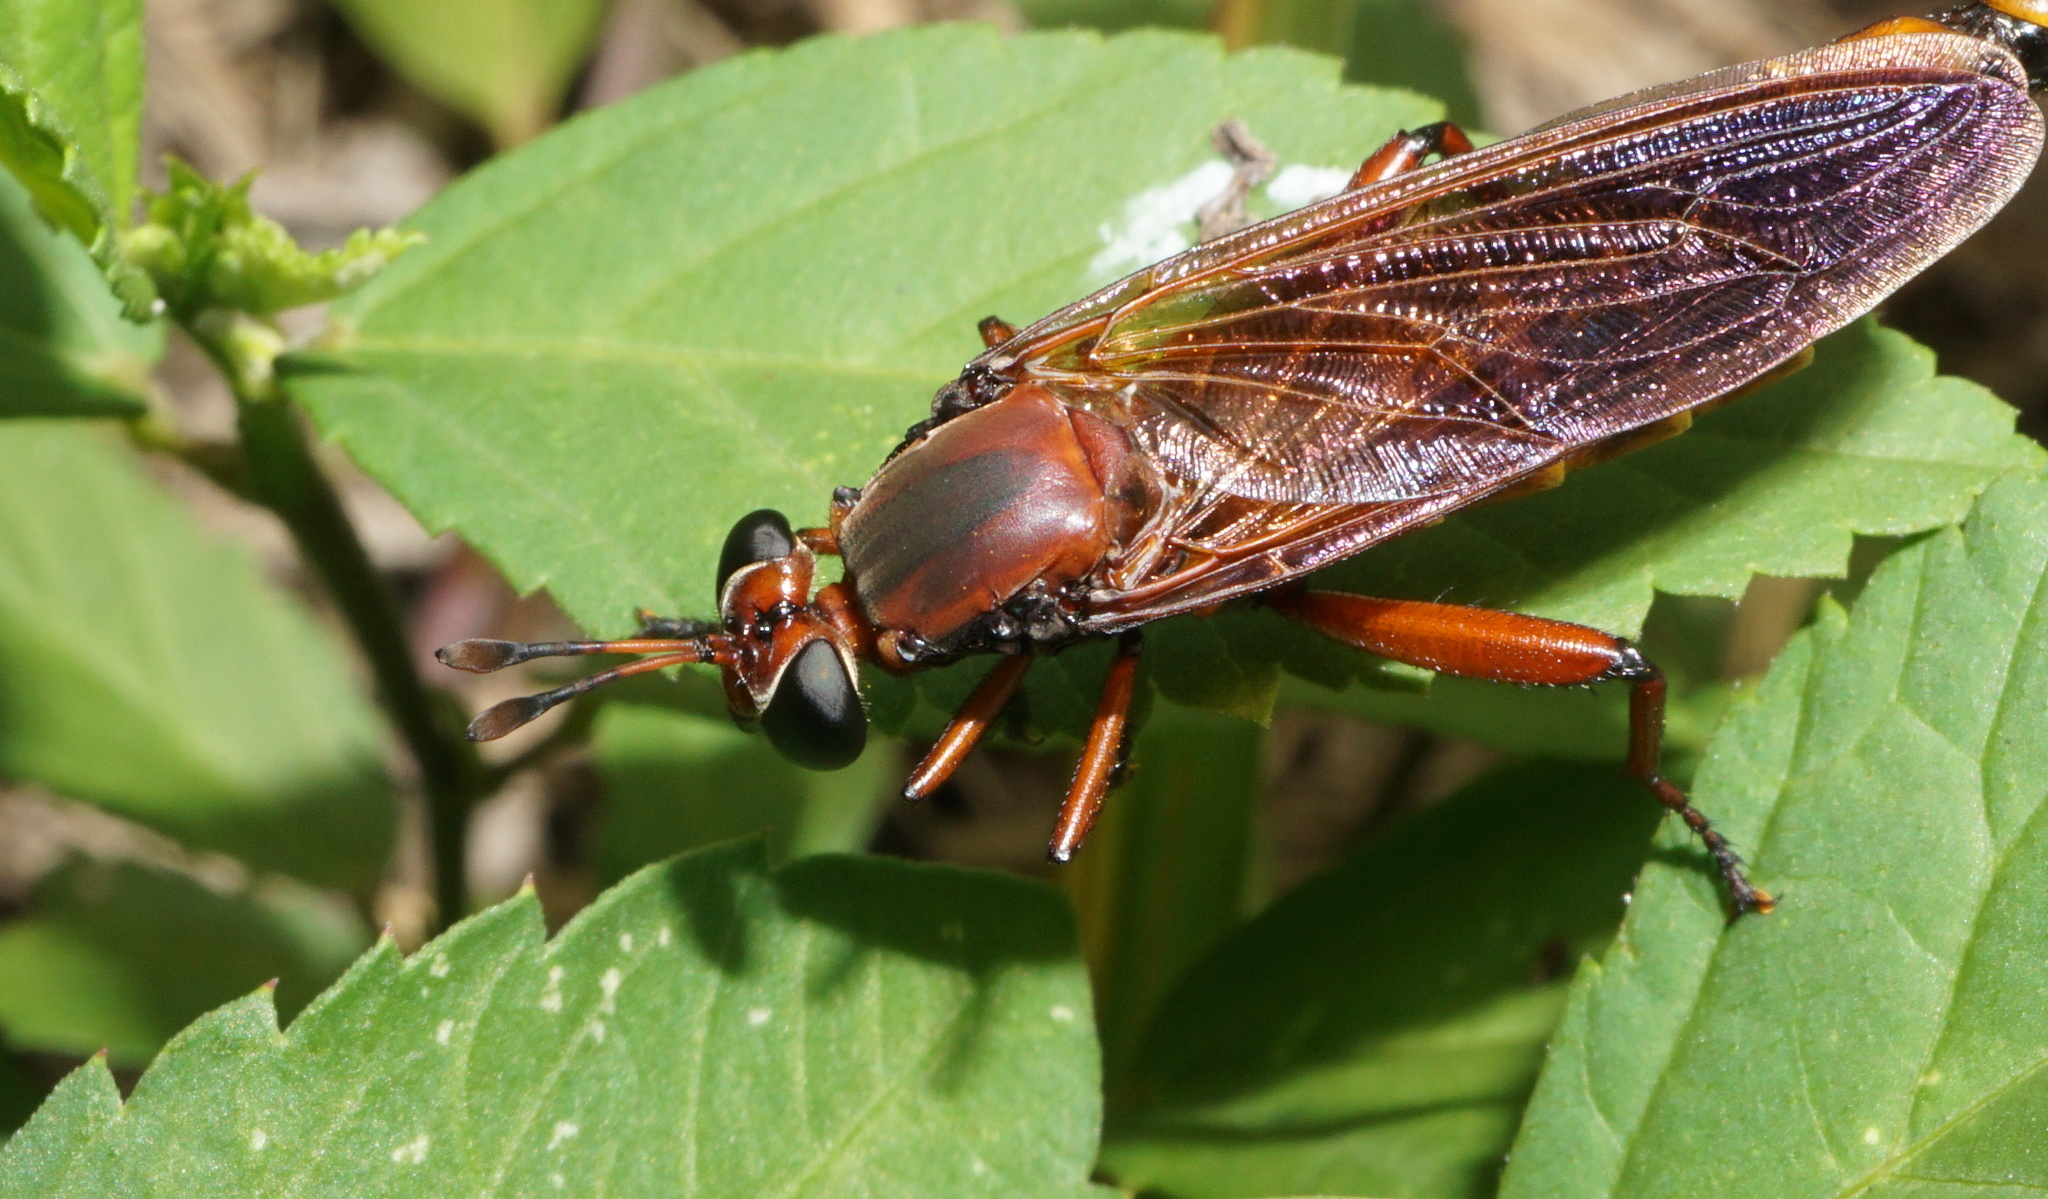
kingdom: Animalia
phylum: Arthropoda
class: Insecta
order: Diptera
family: Mydidae
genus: Mydas
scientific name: Mydas maculiventris
